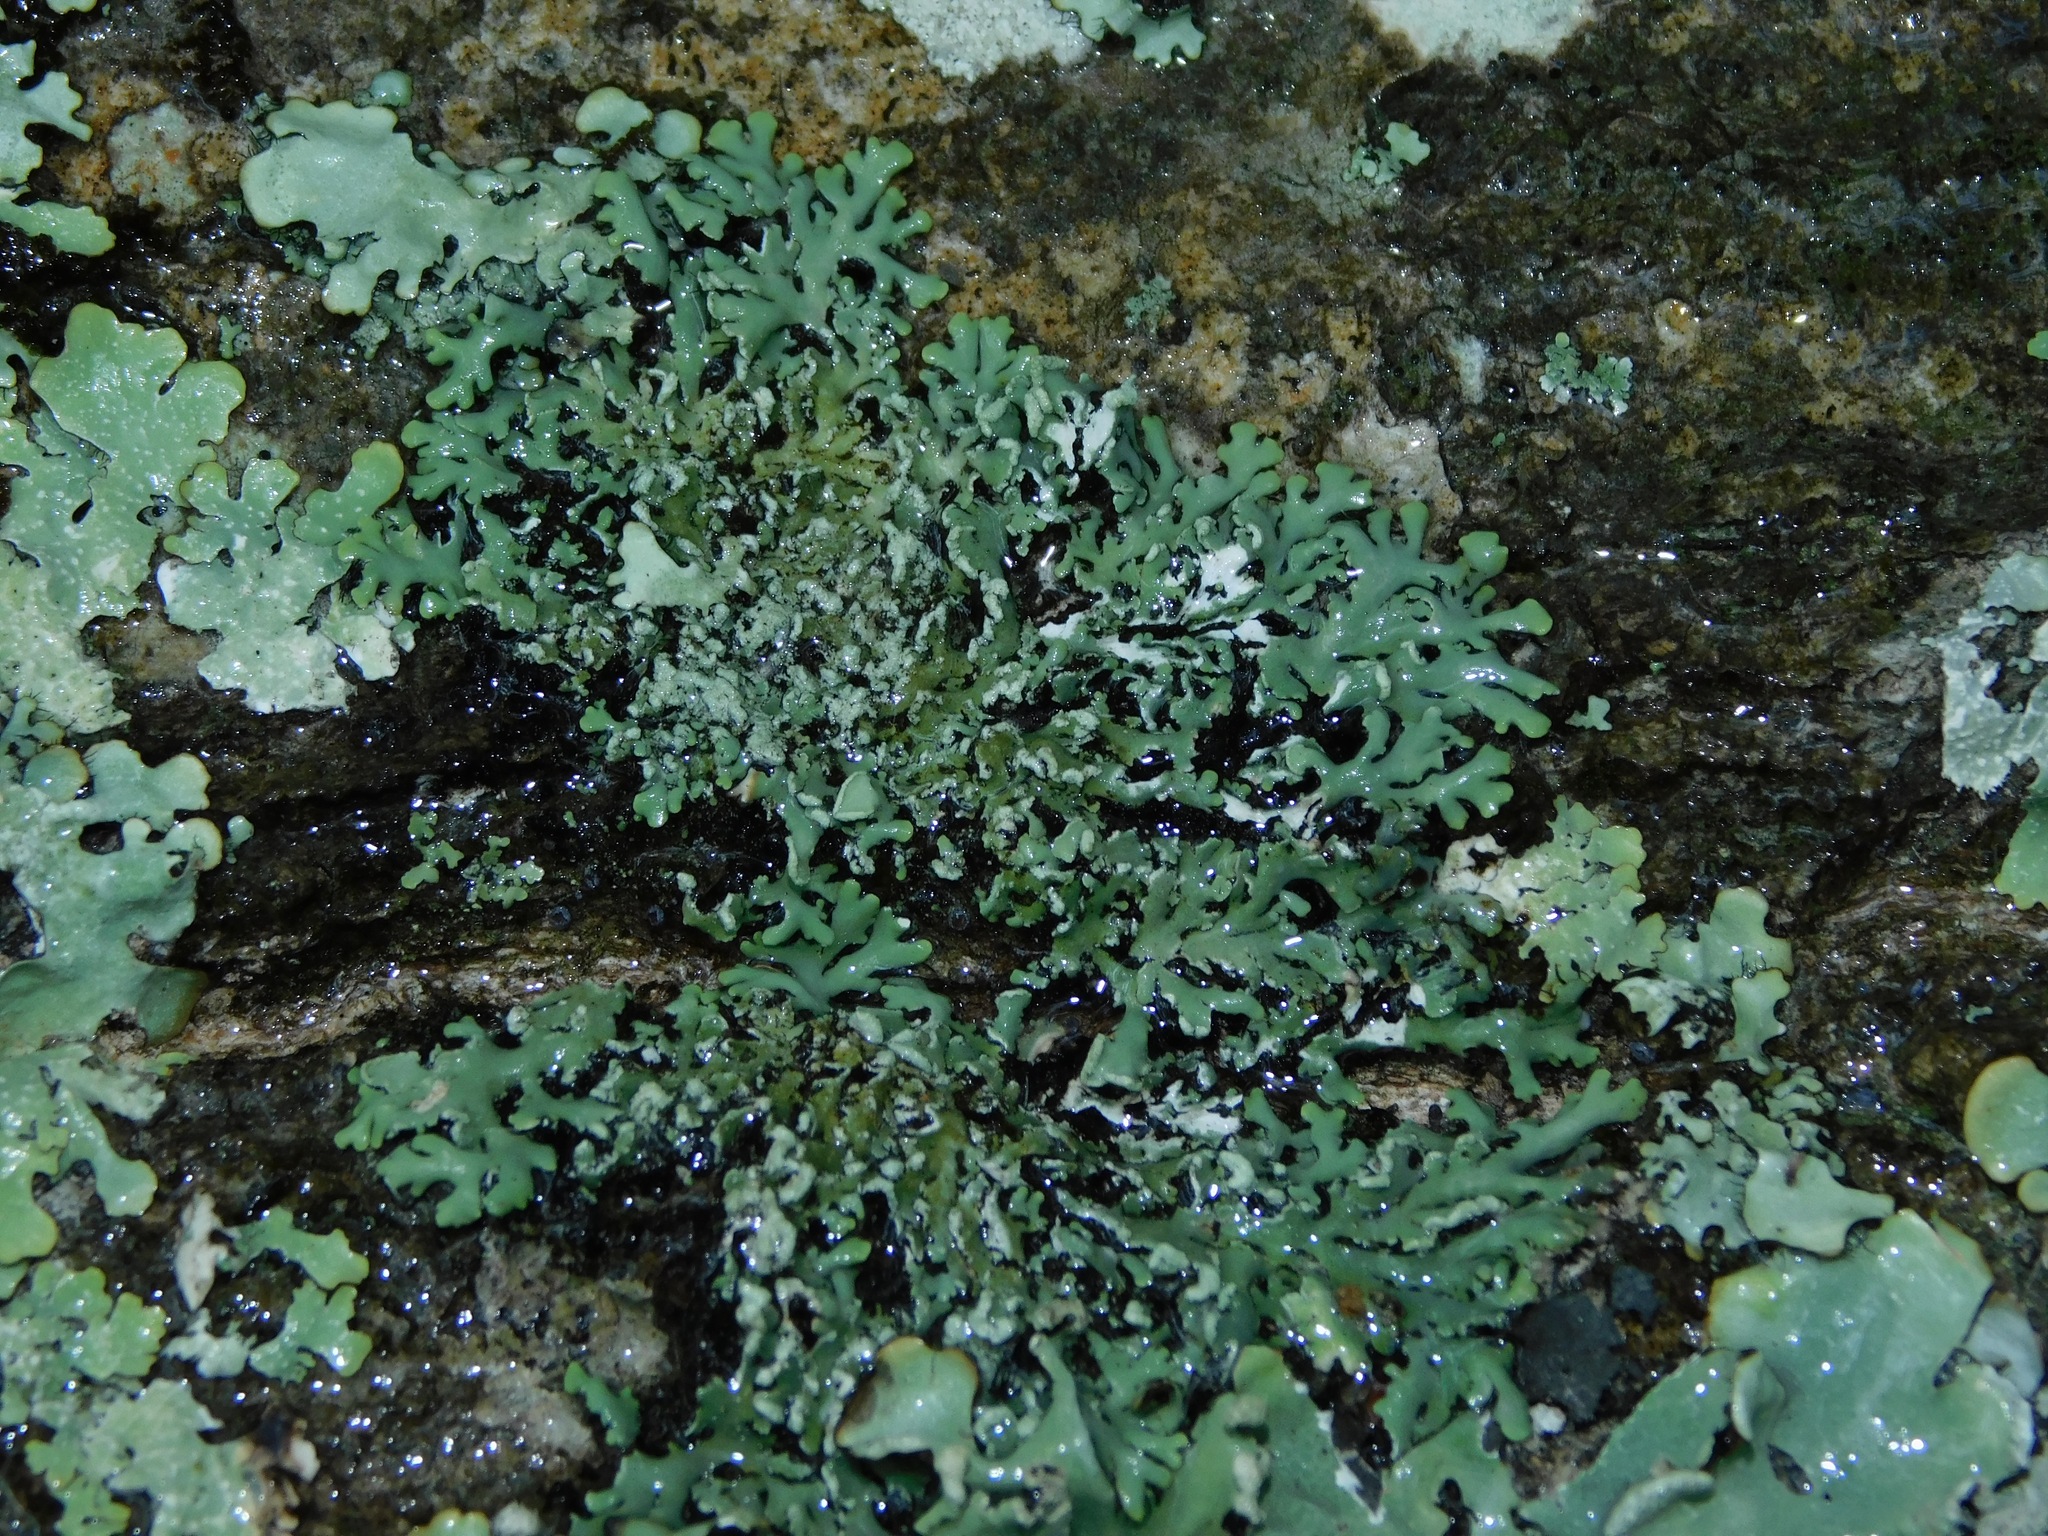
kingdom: Fungi
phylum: Ascomycota
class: Lecanoromycetes
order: Caliciales
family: Physciaceae
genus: Polyblastidium
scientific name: Polyblastidium albicans
